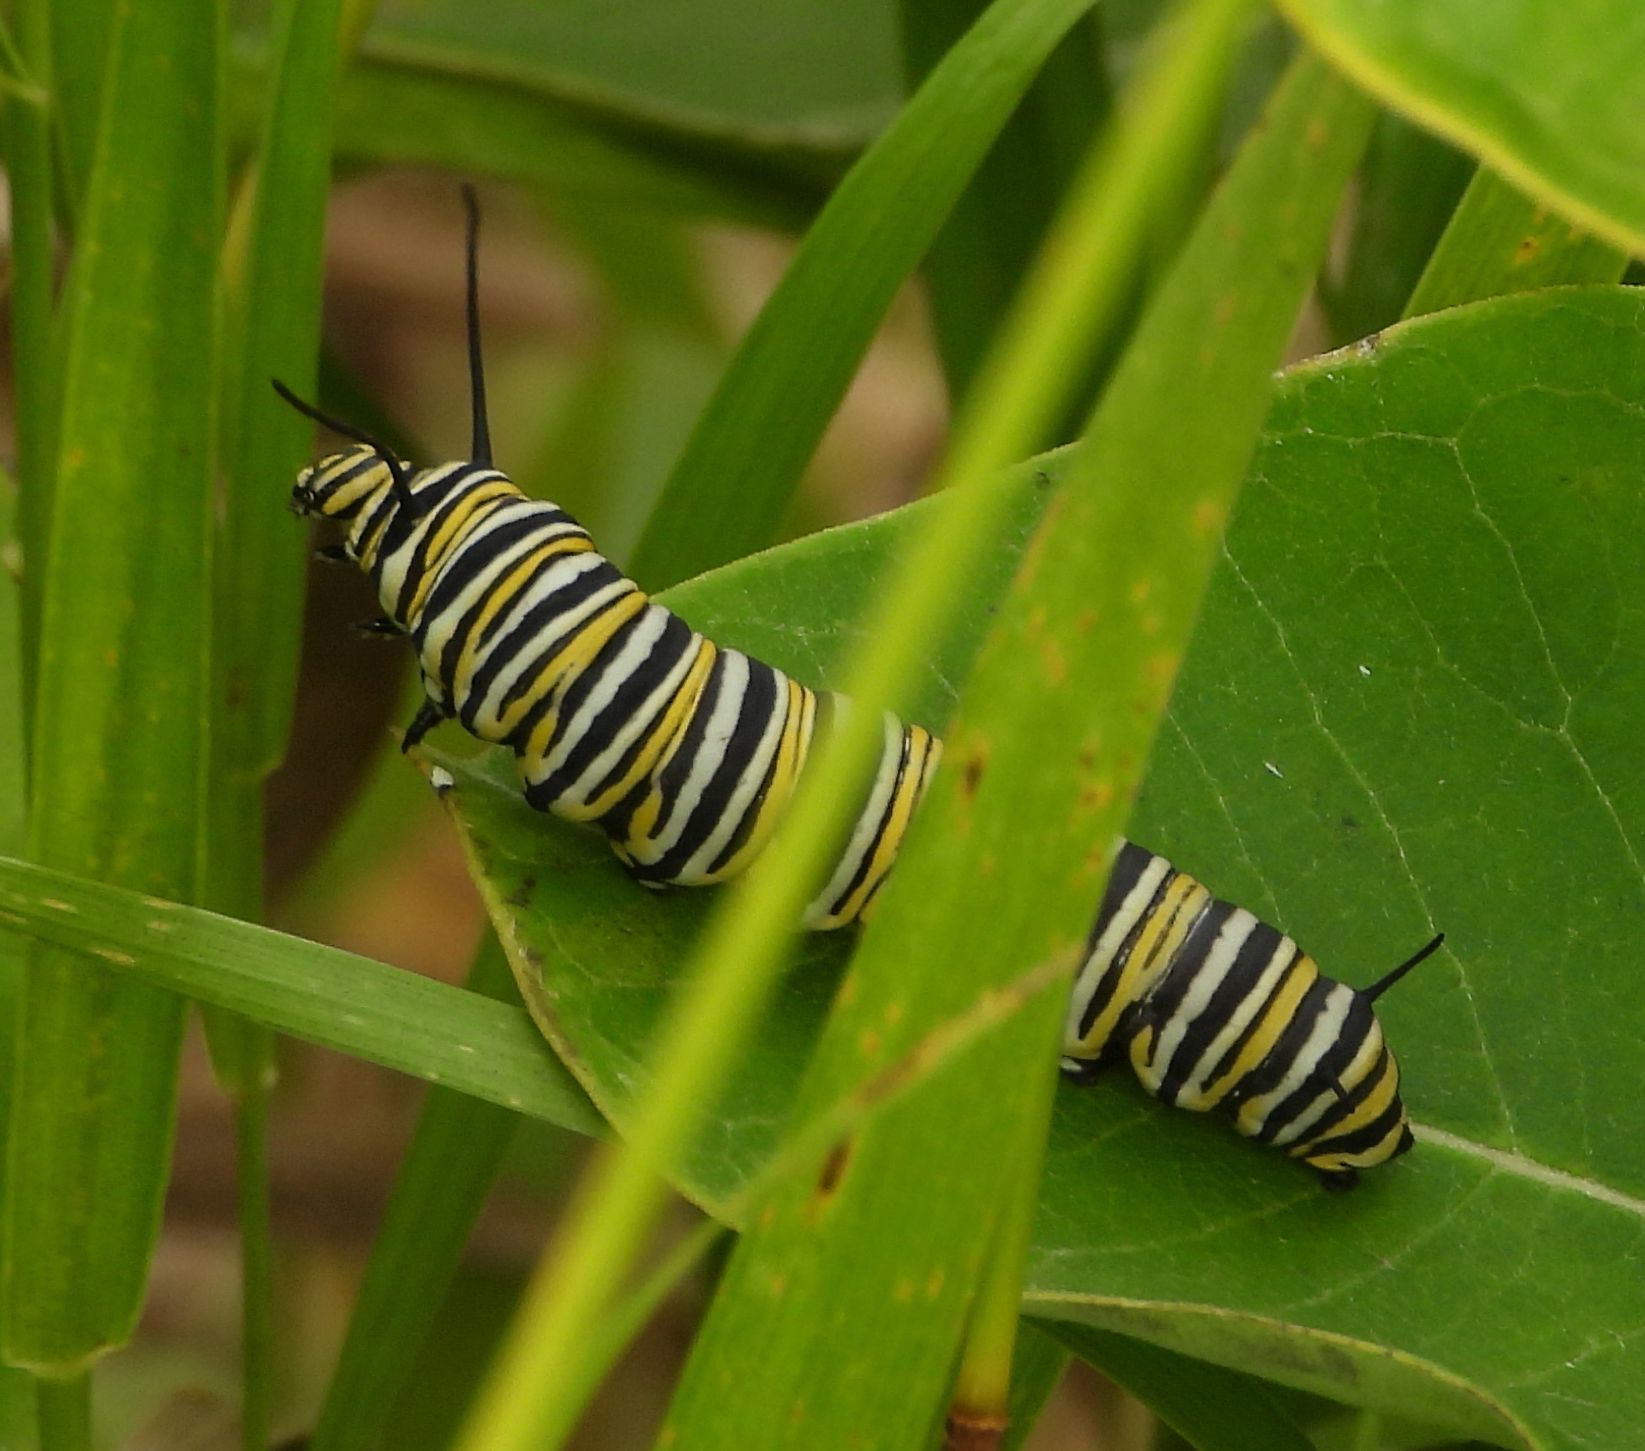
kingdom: Animalia
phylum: Arthropoda
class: Insecta
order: Lepidoptera
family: Nymphalidae
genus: Danaus
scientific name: Danaus plexippus
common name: Monarch
